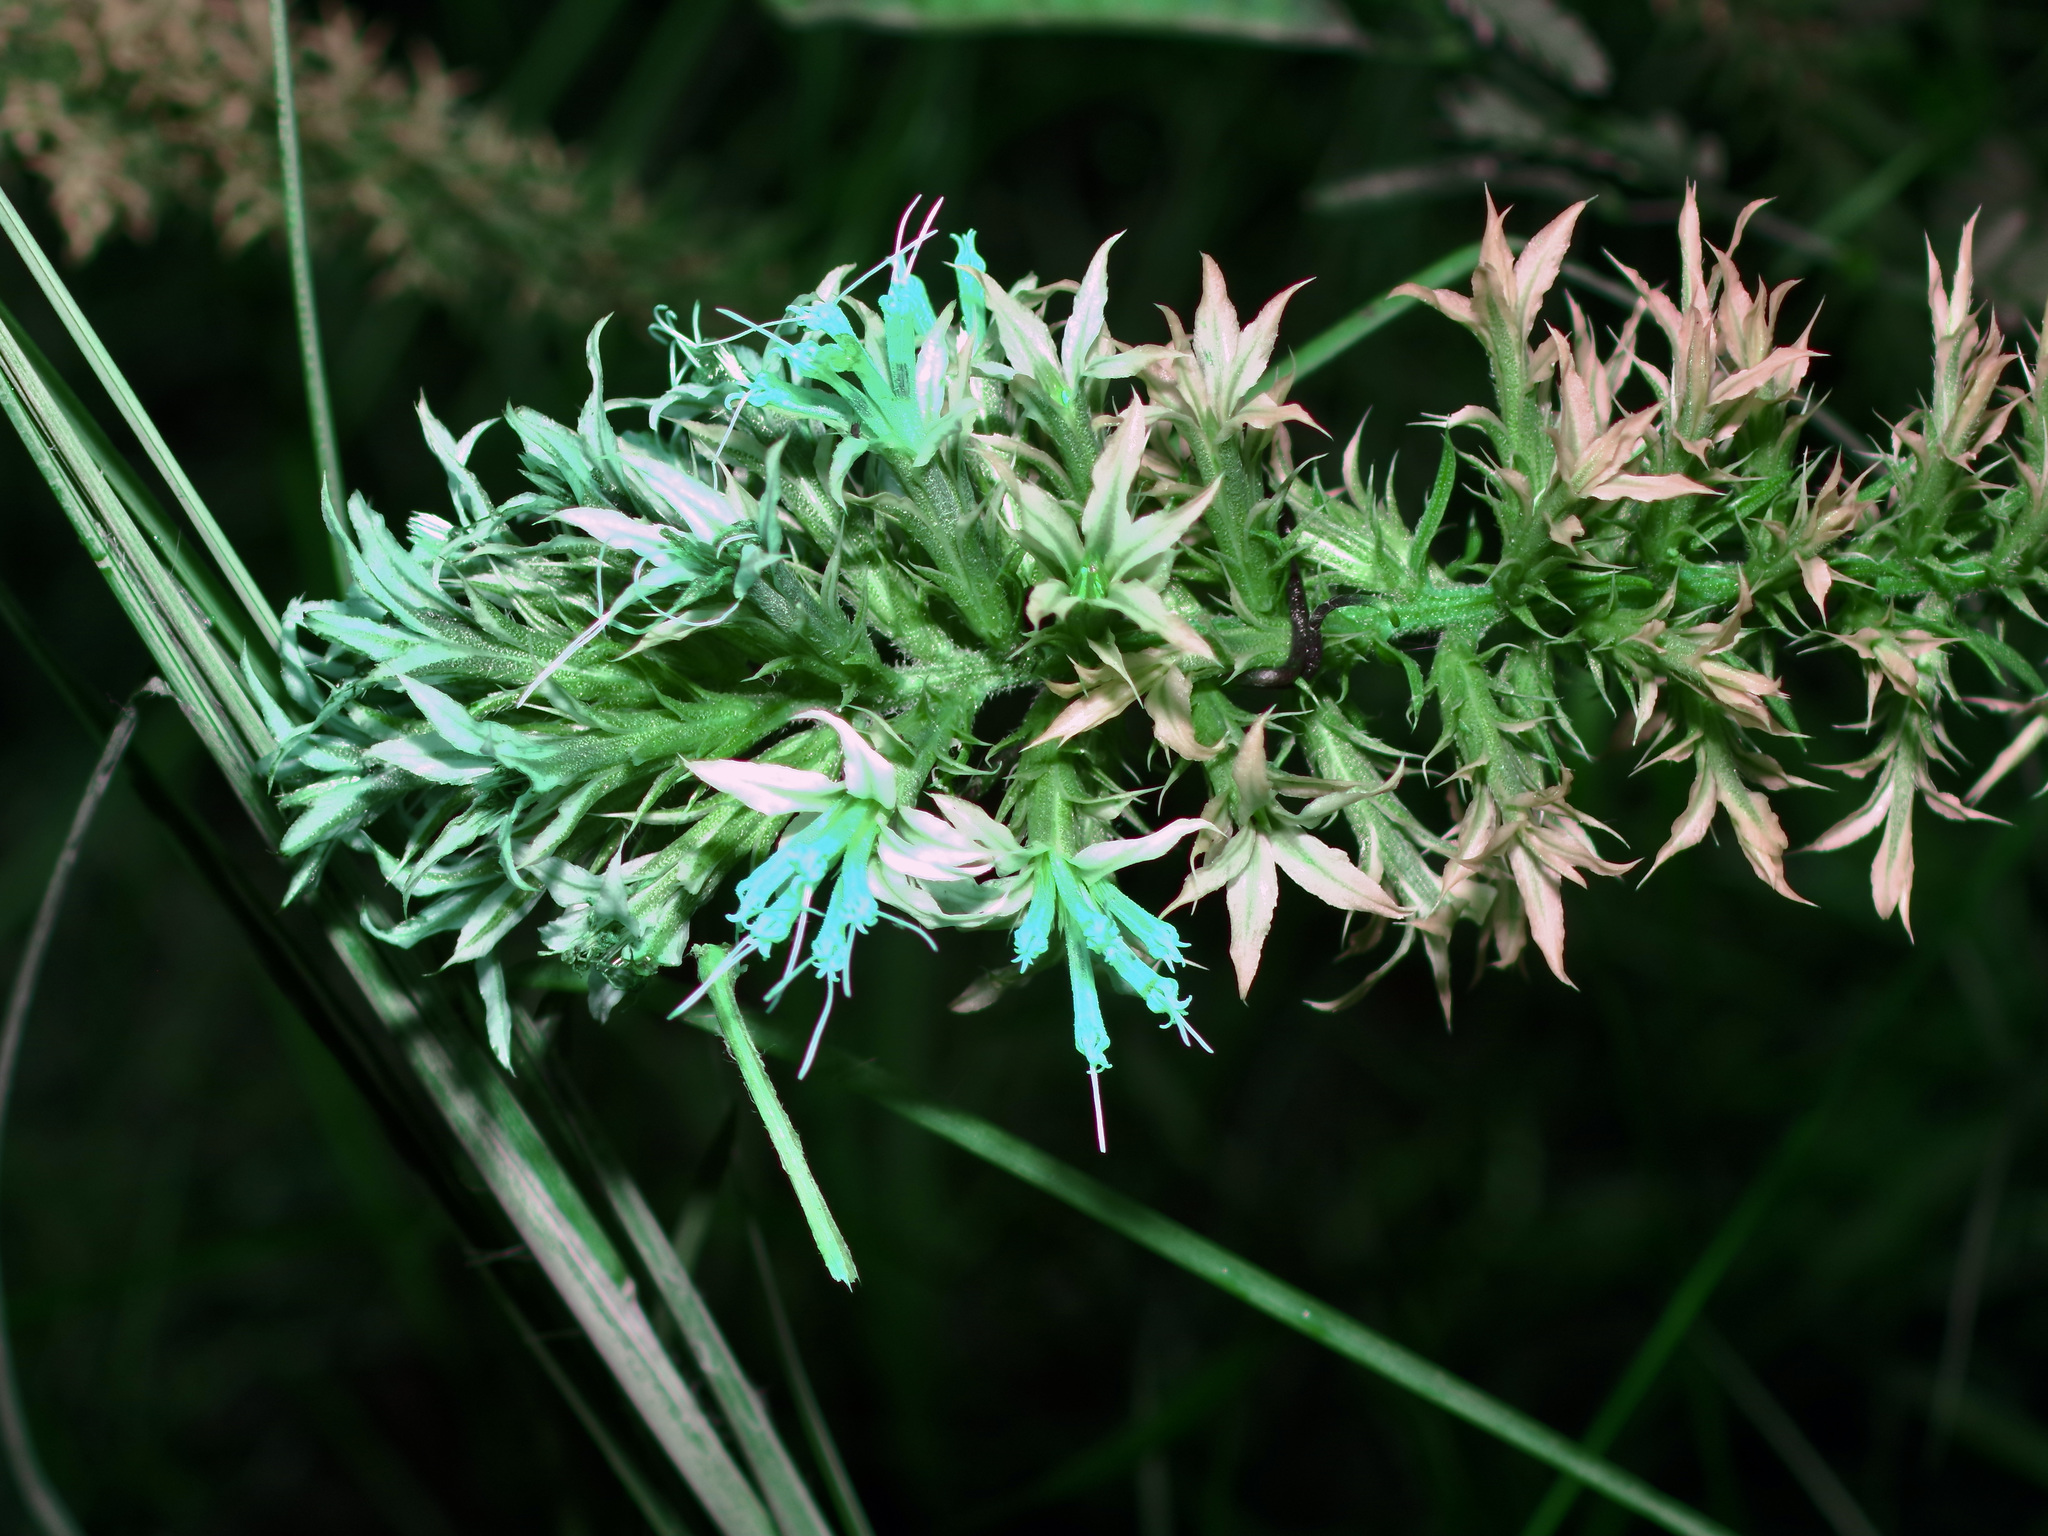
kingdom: Plantae
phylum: Tracheophyta
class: Magnoliopsida
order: Asterales
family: Asteraceae
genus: Liatris
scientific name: Liatris bridgesii
